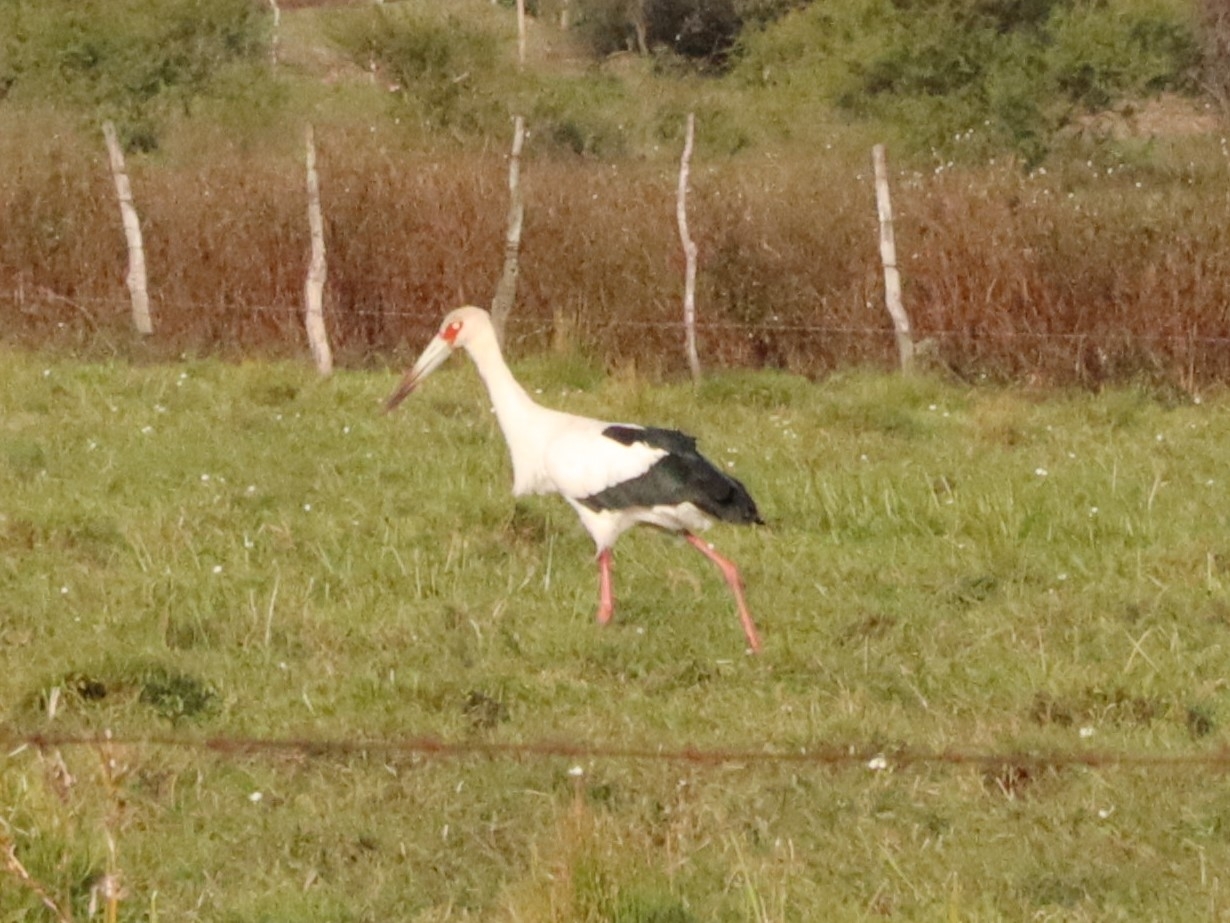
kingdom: Animalia
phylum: Chordata
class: Aves
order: Ciconiiformes
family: Ciconiidae
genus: Ciconia
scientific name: Ciconia maguari
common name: Maguari stork
